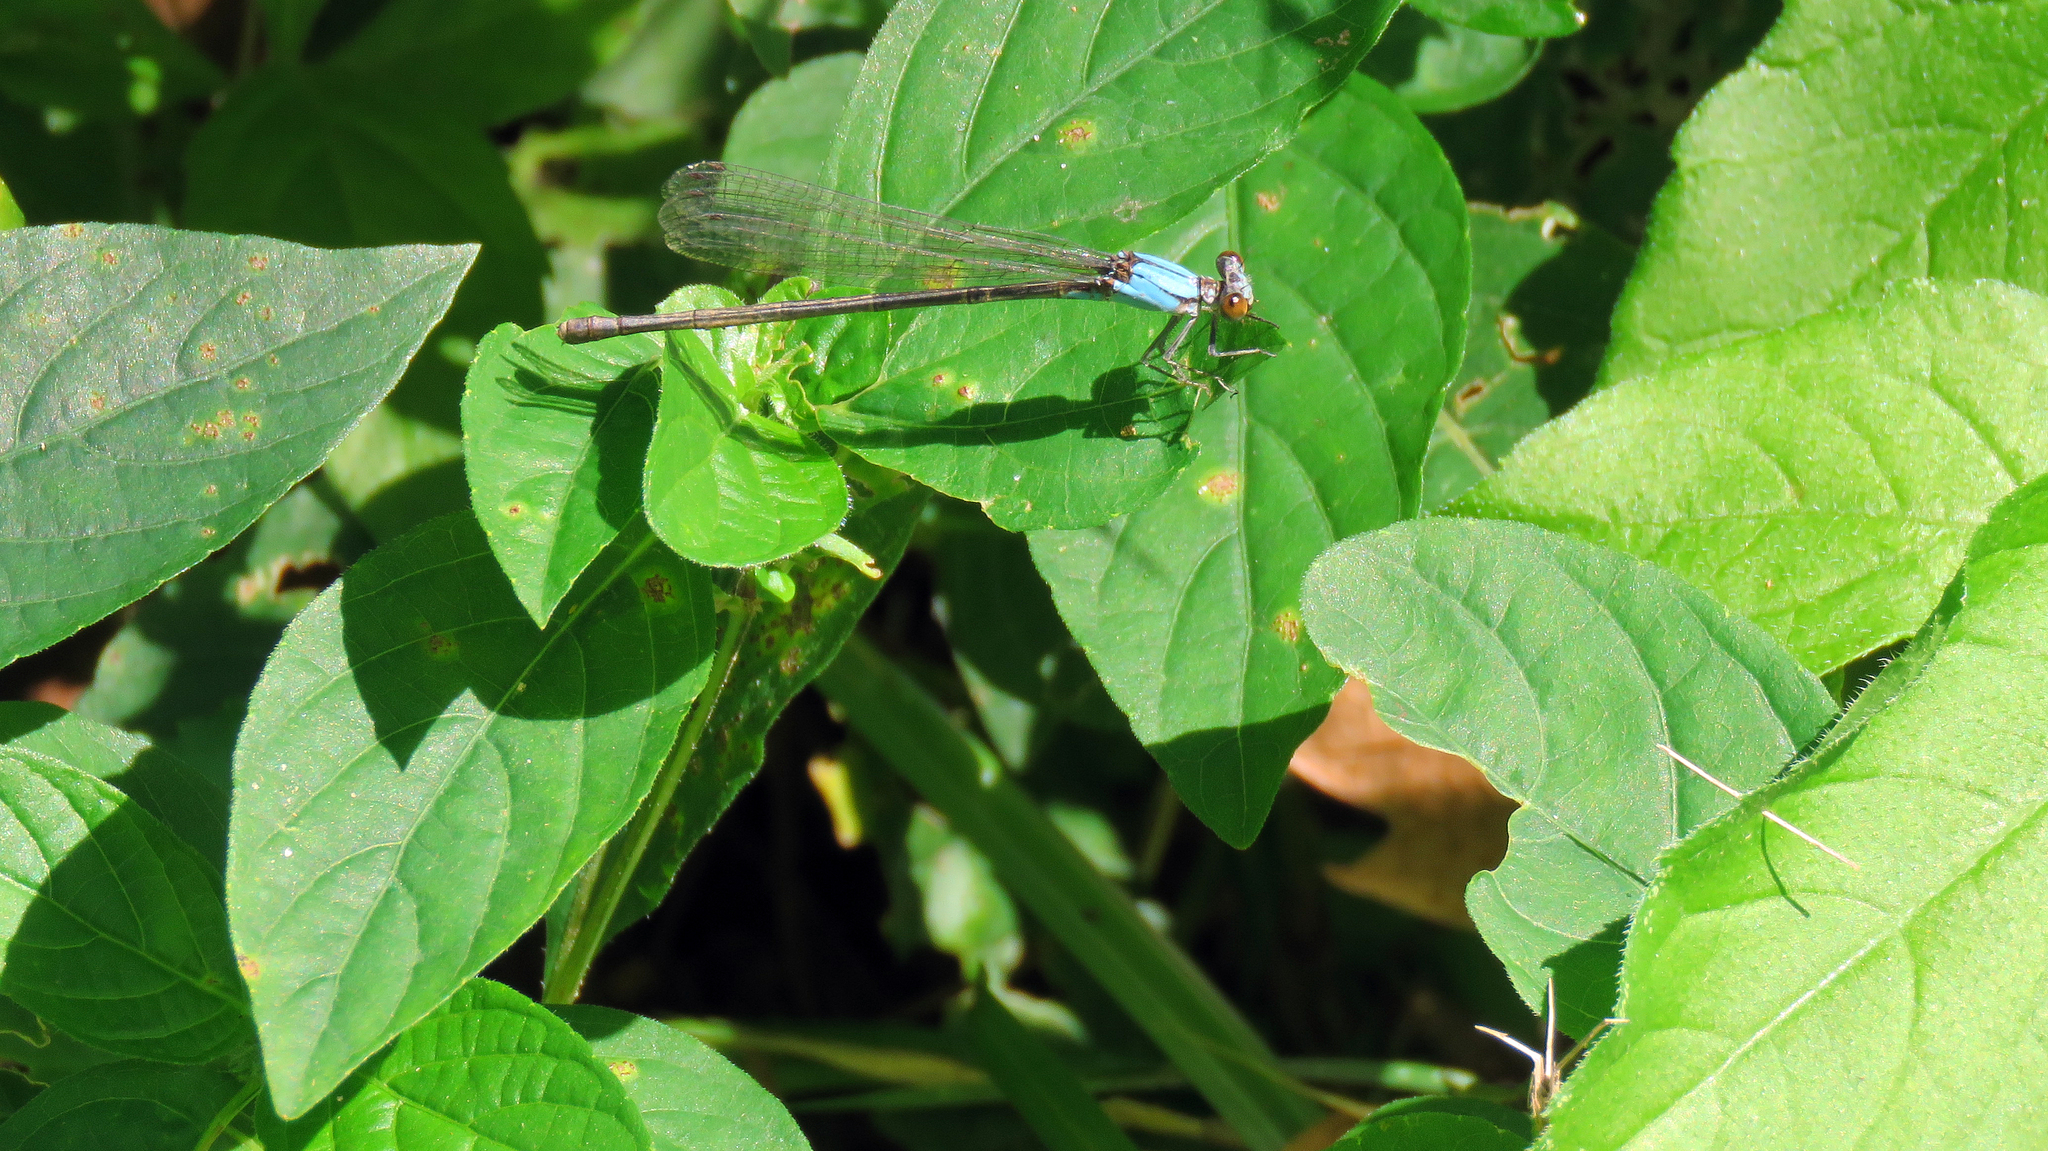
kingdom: Animalia
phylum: Arthropoda
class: Insecta
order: Odonata
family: Coenagrionidae
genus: Argia
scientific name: Argia moesta
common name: Powdered dancer
